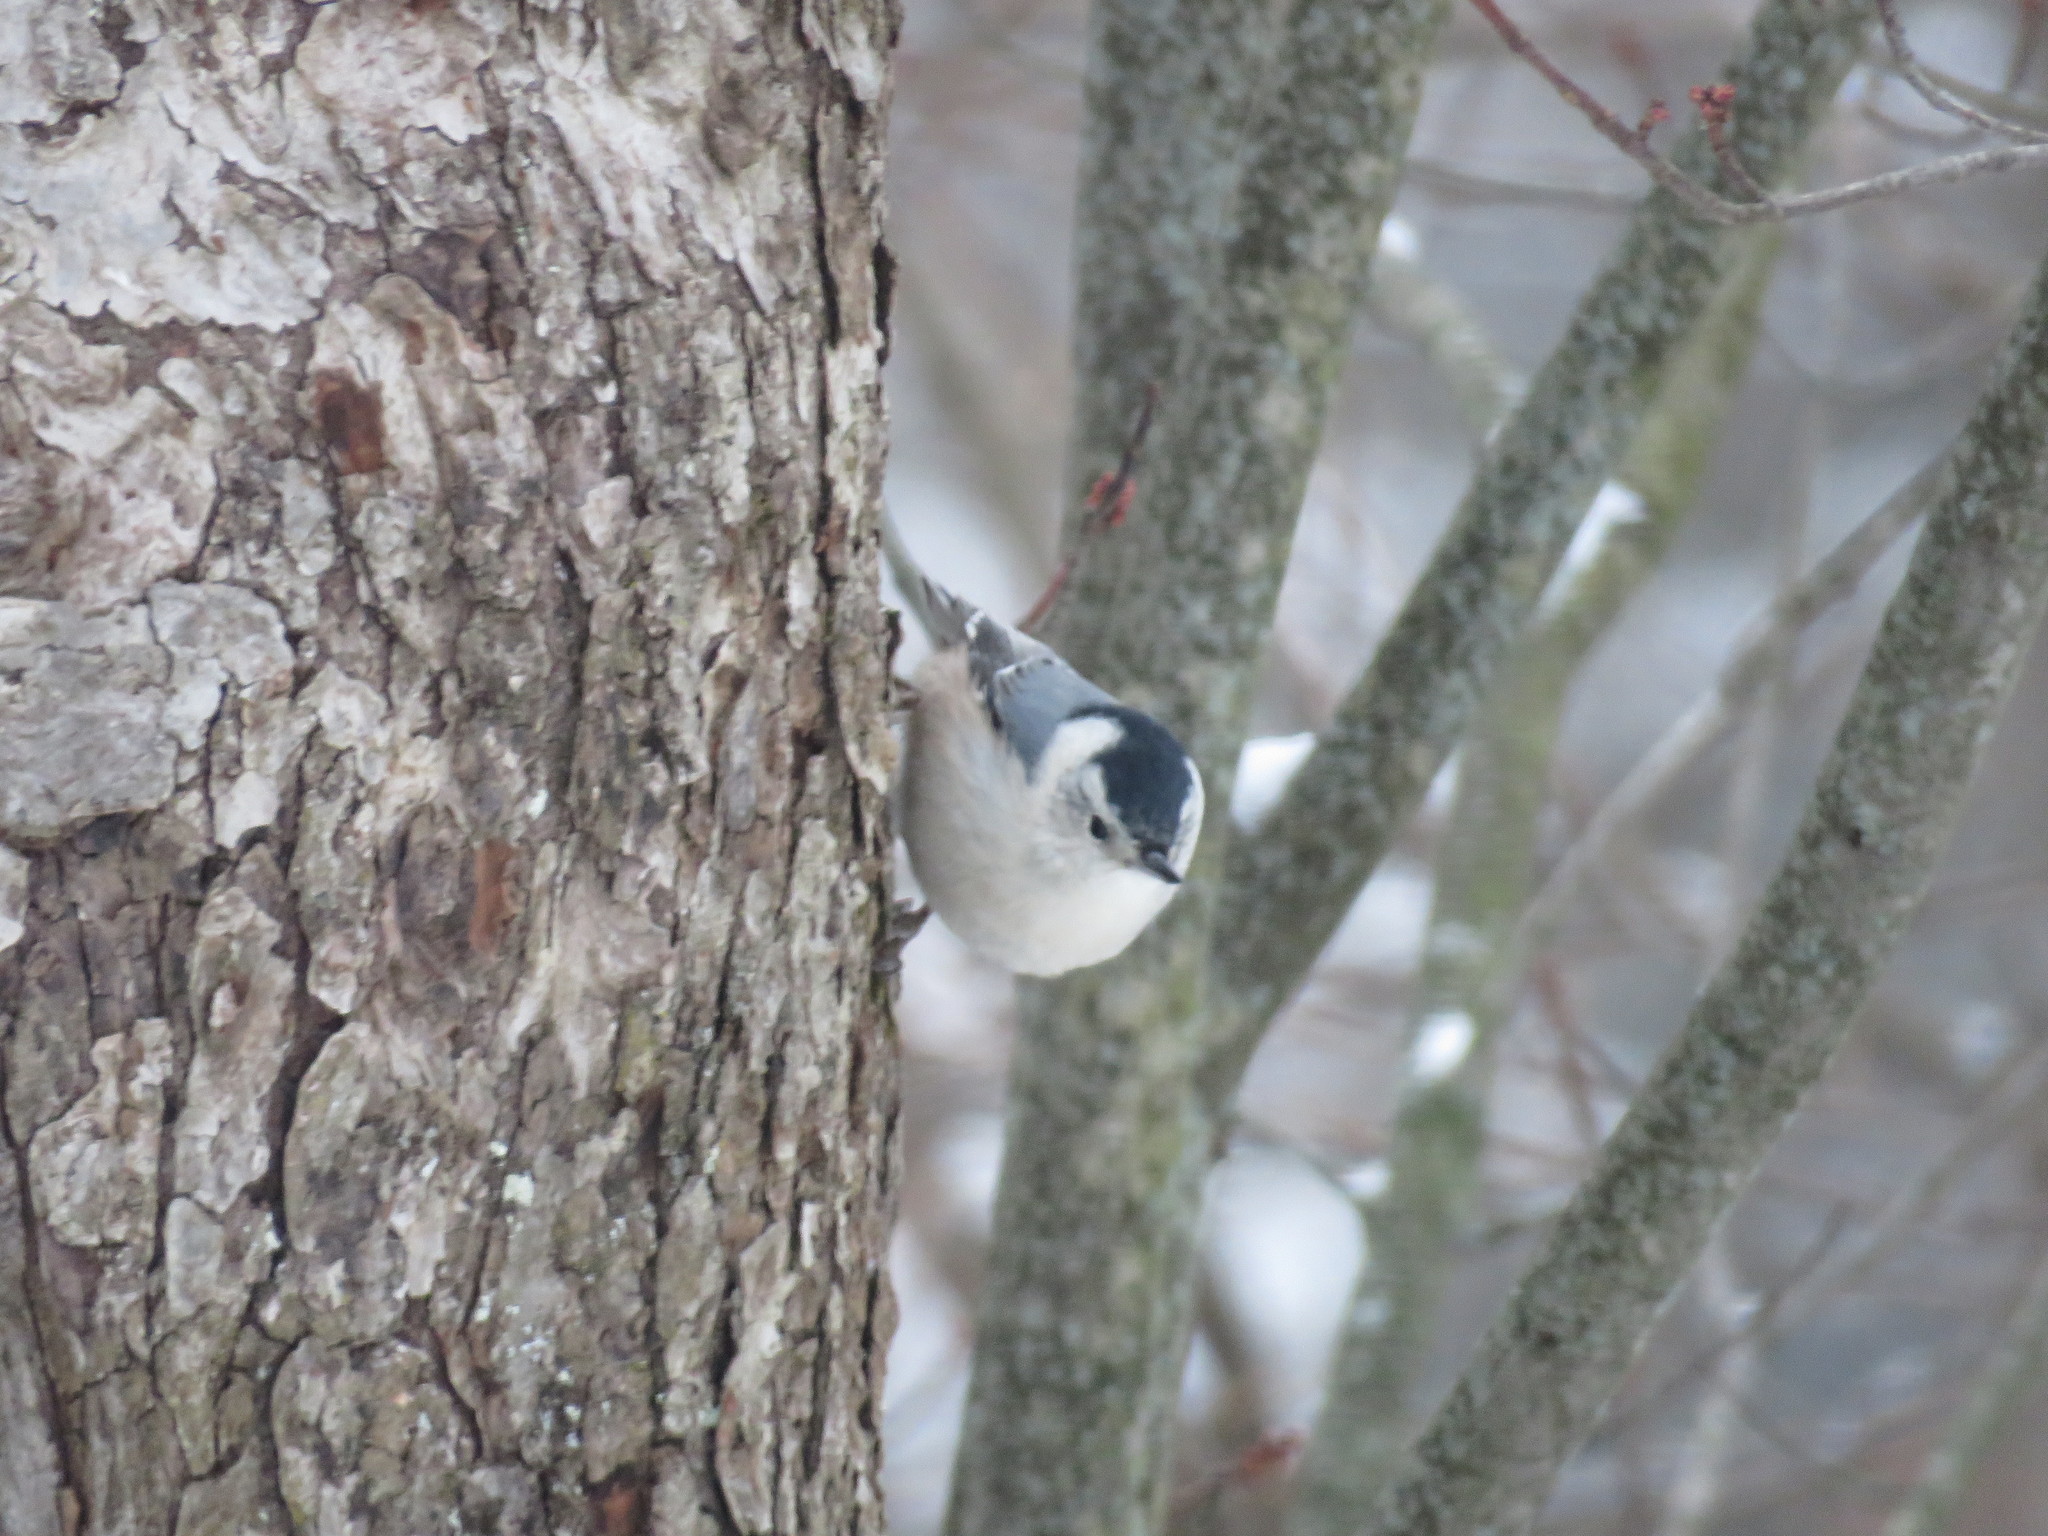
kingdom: Animalia
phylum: Chordata
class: Aves
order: Passeriformes
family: Sittidae
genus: Sitta
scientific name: Sitta carolinensis
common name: White-breasted nuthatch
